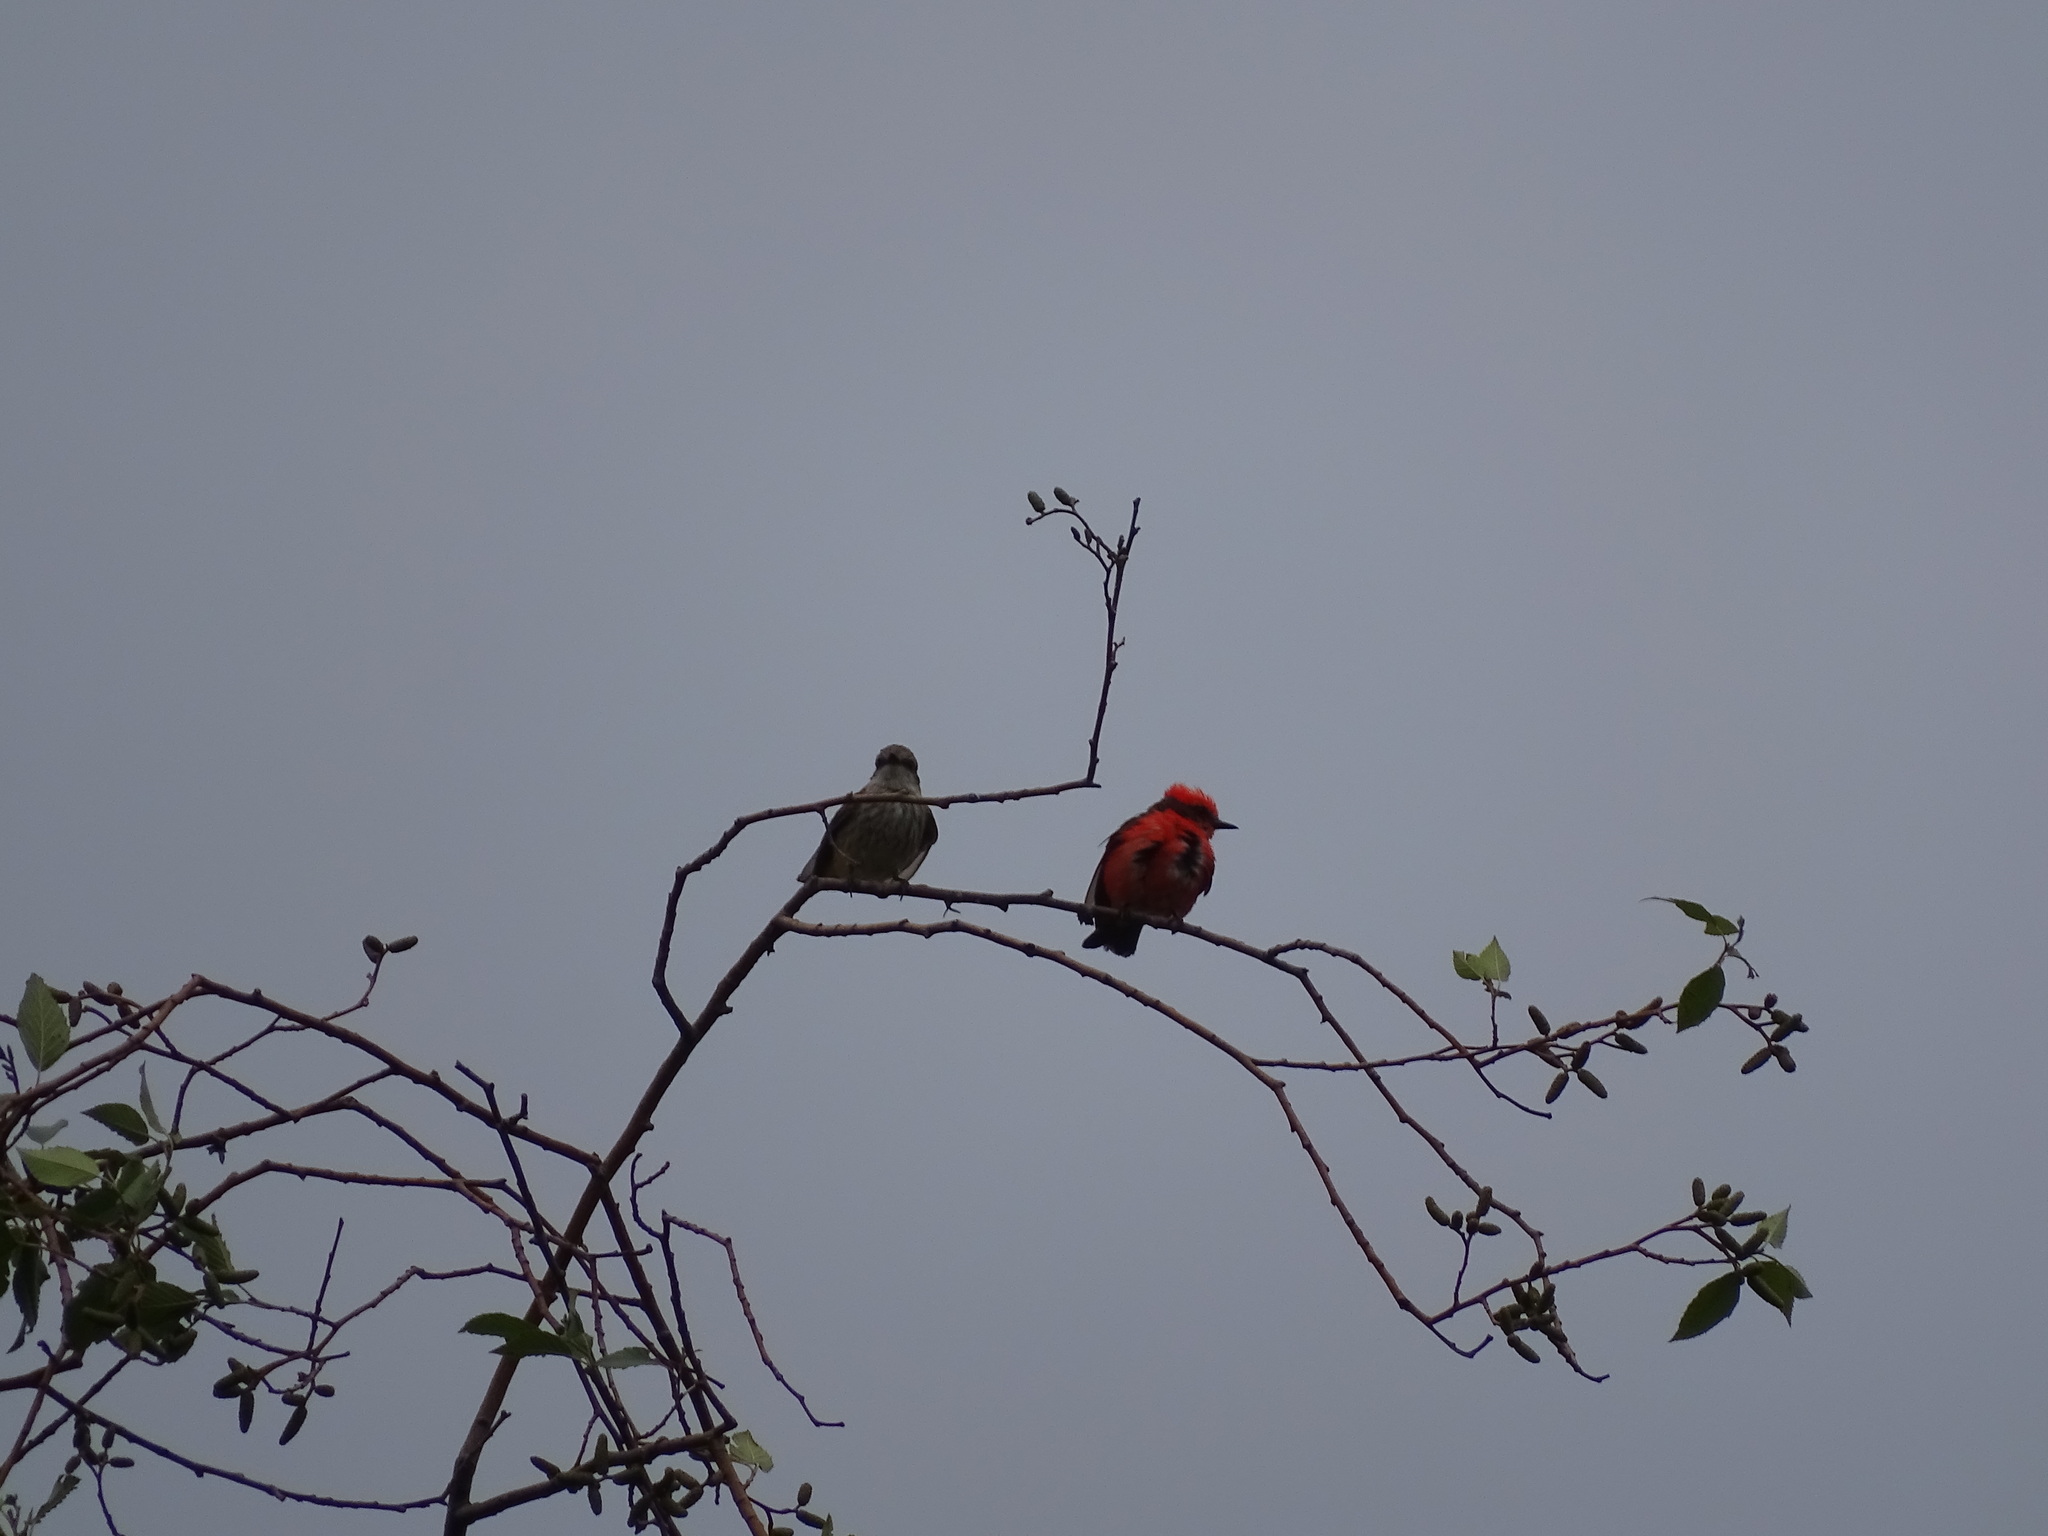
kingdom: Animalia
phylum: Chordata
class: Aves
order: Passeriformes
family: Tyrannidae
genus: Pyrocephalus
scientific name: Pyrocephalus rubinus
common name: Vermilion flycatcher
